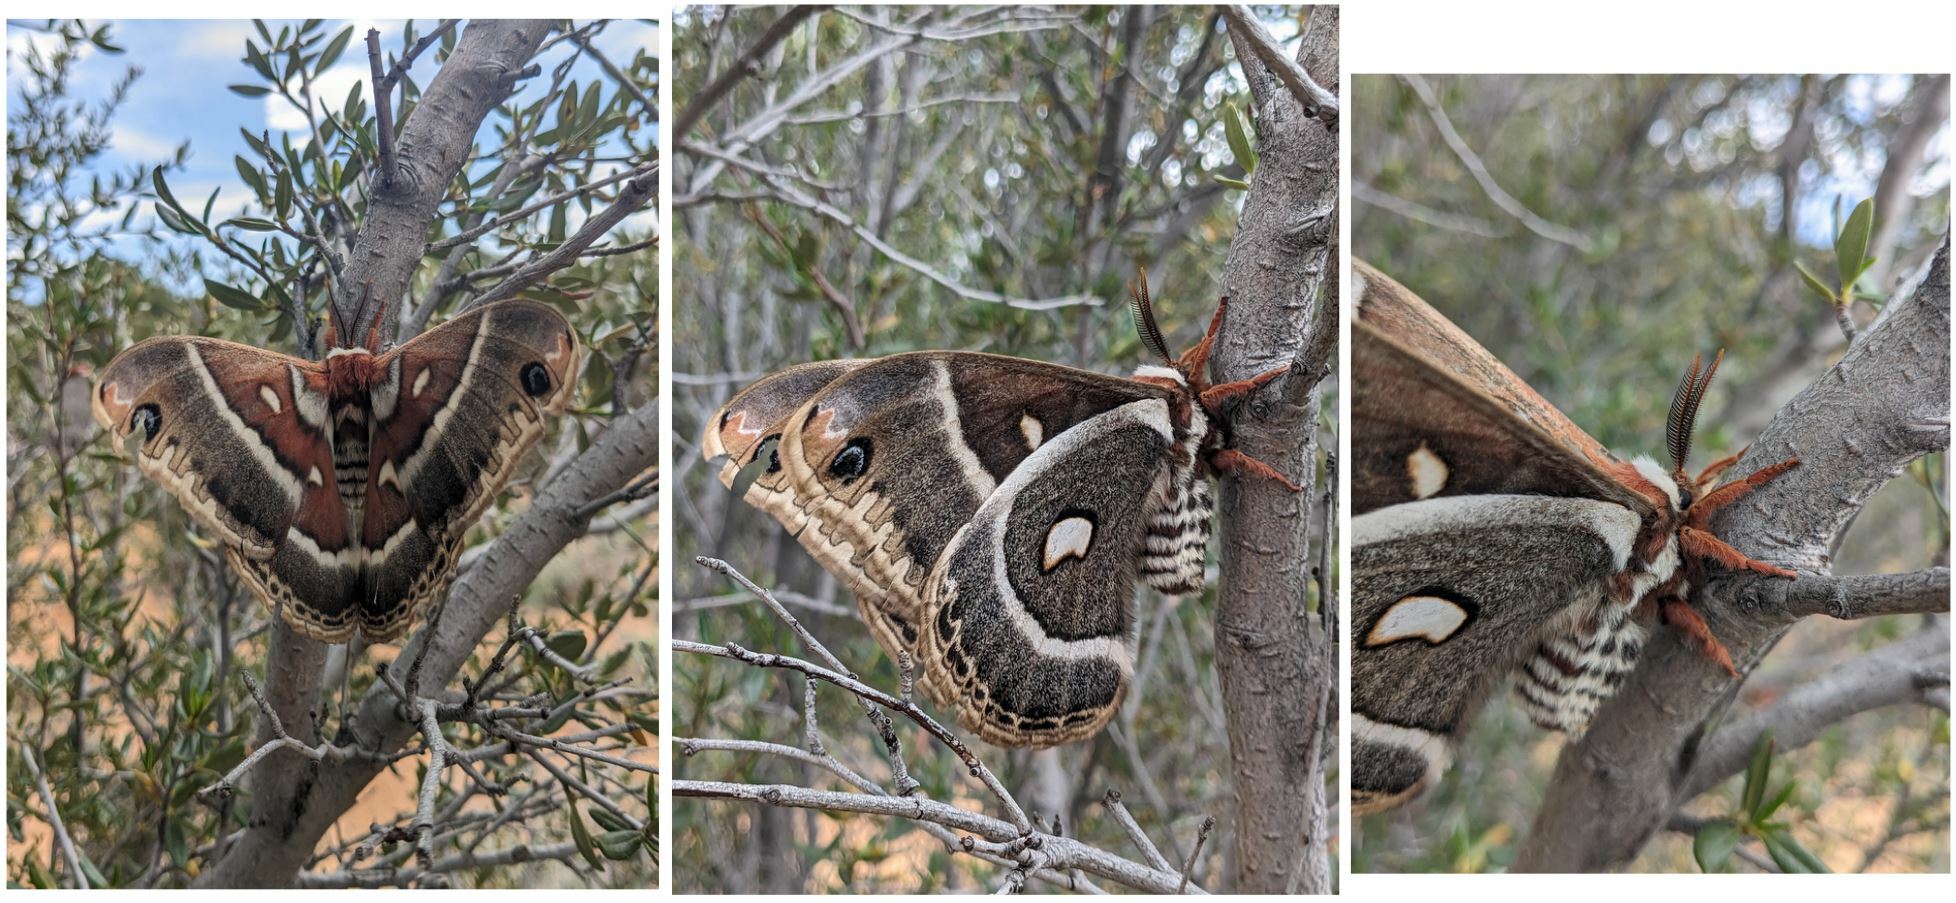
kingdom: Animalia
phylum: Arthropoda
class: Insecta
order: Lepidoptera
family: Saturniidae
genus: Hyalophora
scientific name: Hyalophora gloveri
